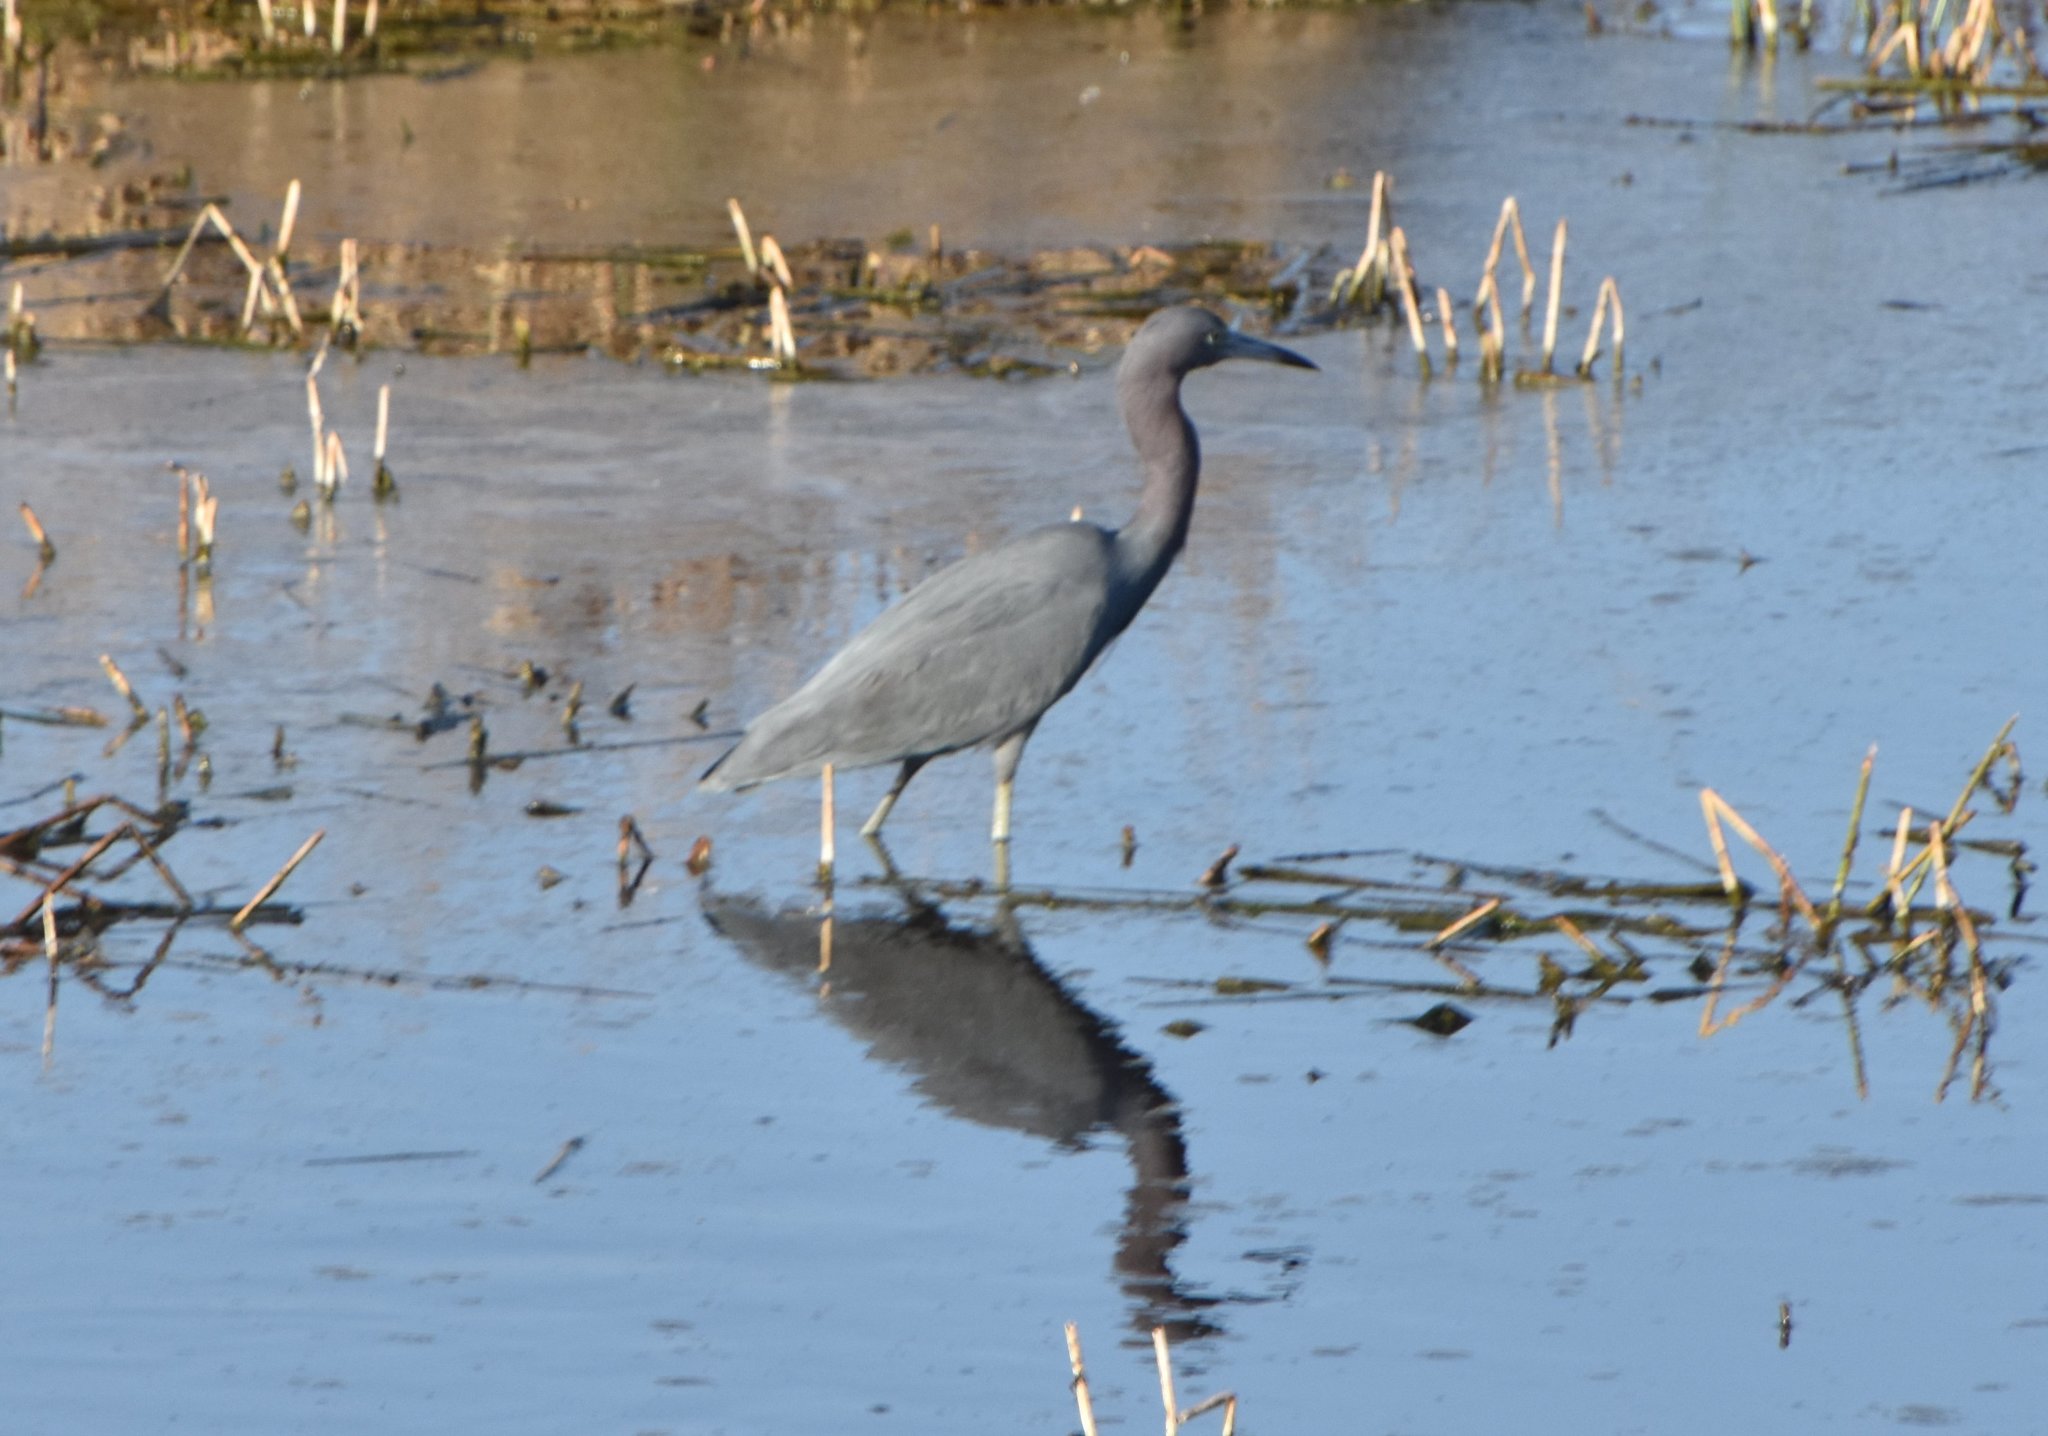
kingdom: Animalia
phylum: Chordata
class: Aves
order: Pelecaniformes
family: Ardeidae
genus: Egretta
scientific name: Egretta caerulea
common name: Little blue heron
